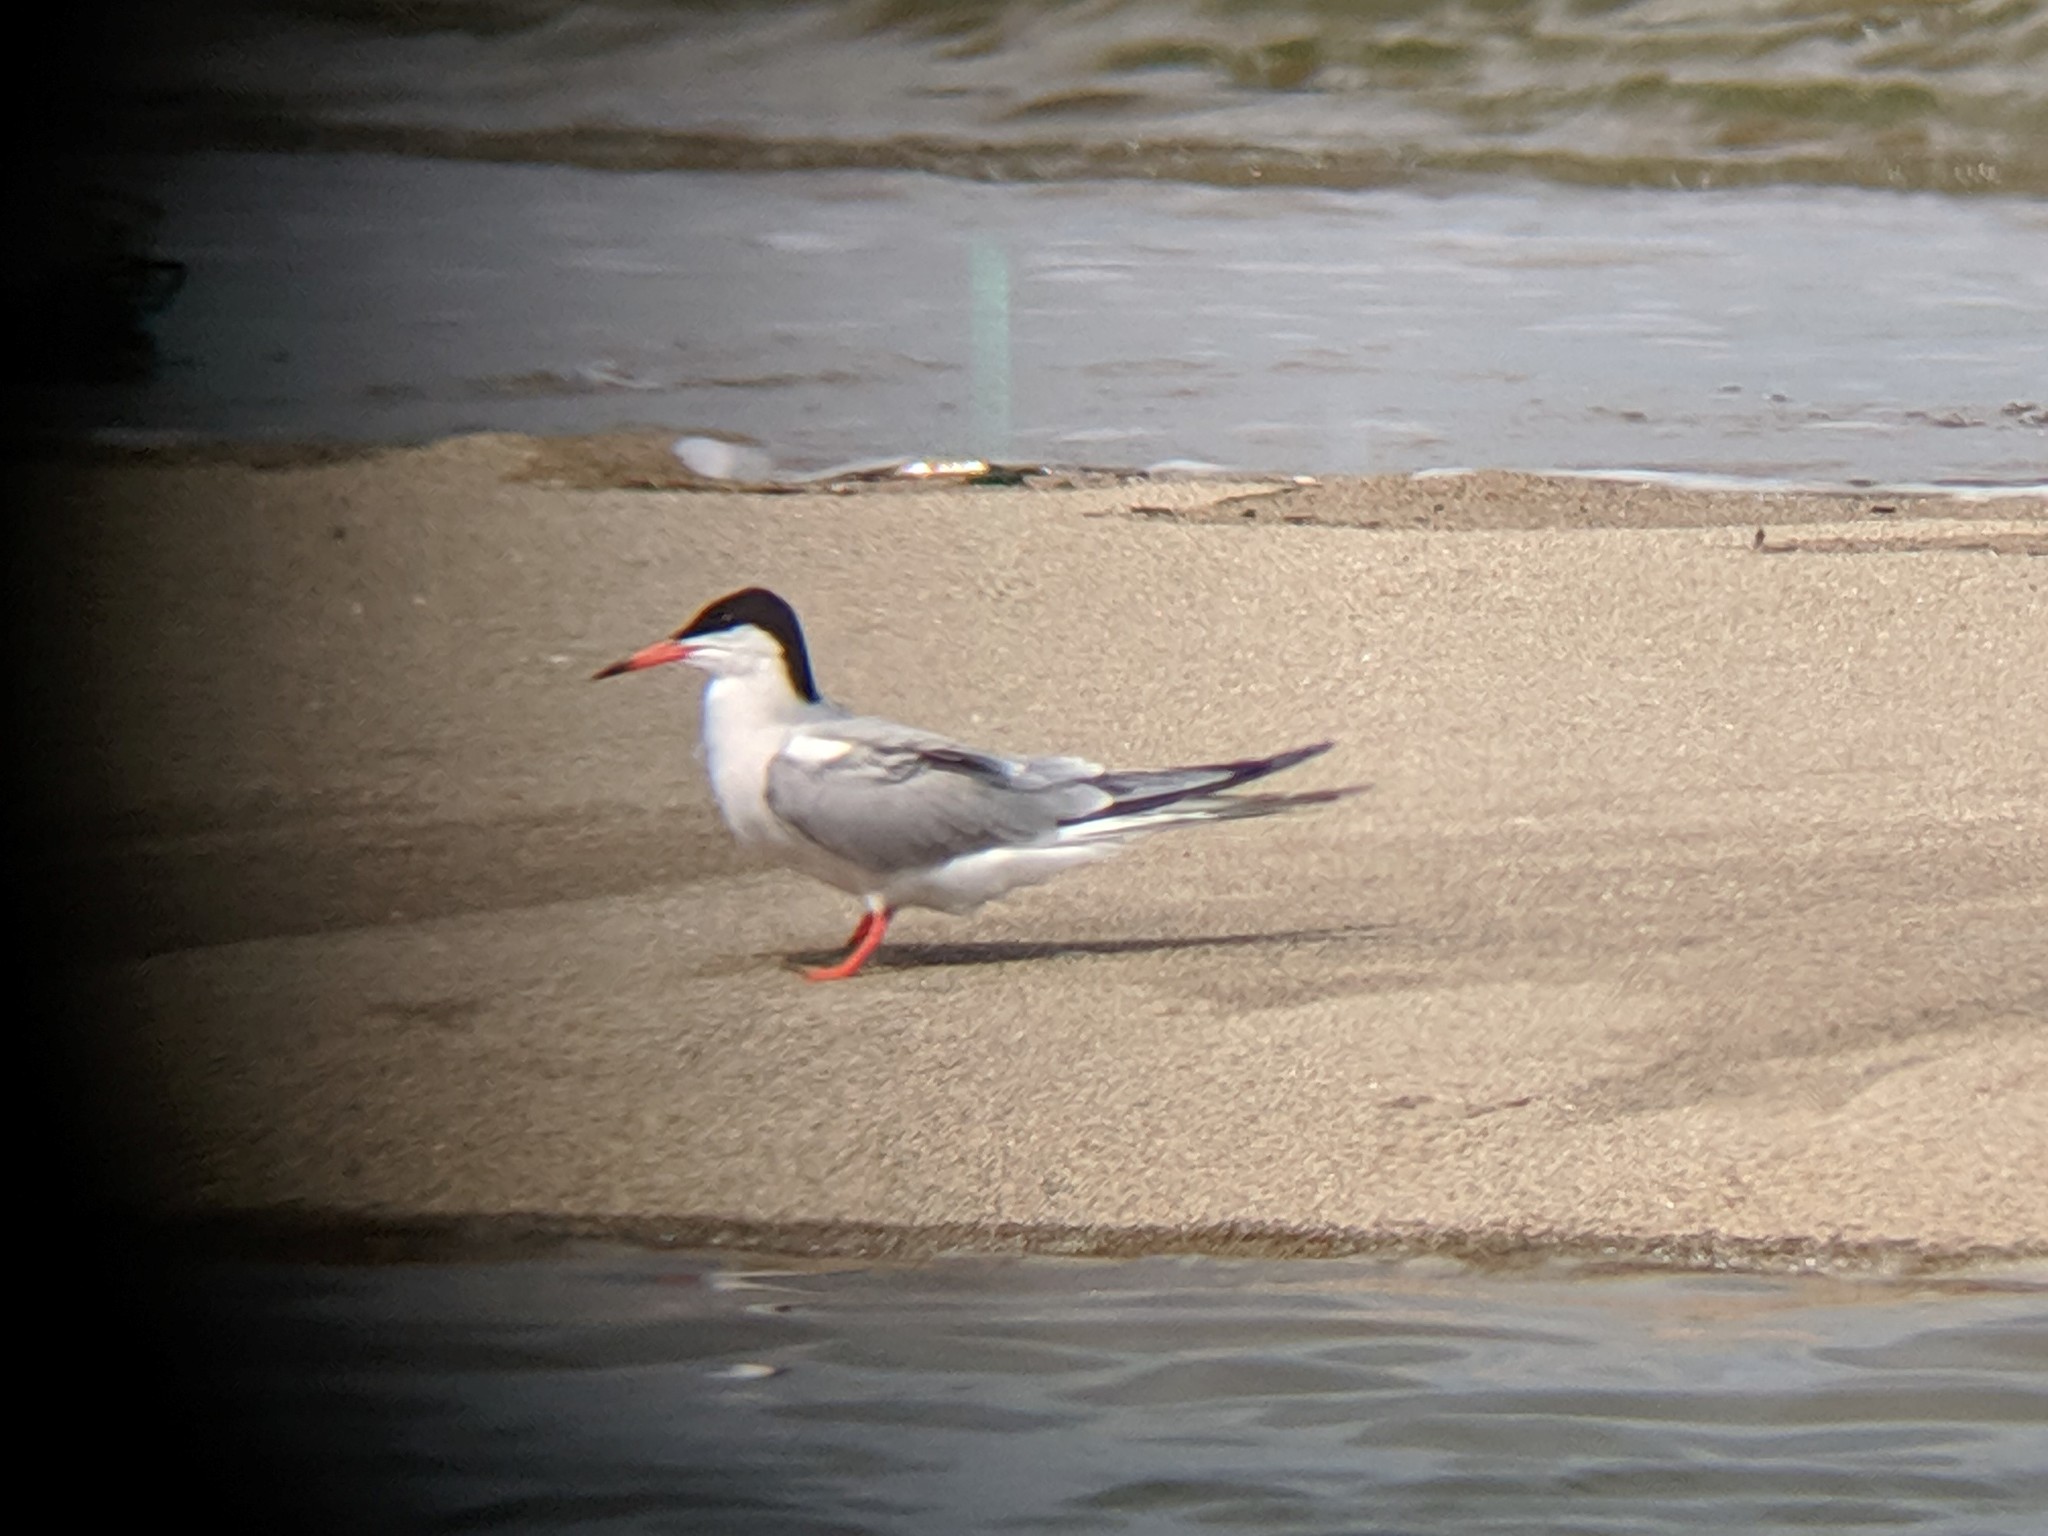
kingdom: Animalia
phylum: Chordata
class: Aves
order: Charadriiformes
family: Laridae
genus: Sterna
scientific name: Sterna hirundo
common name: Common tern
